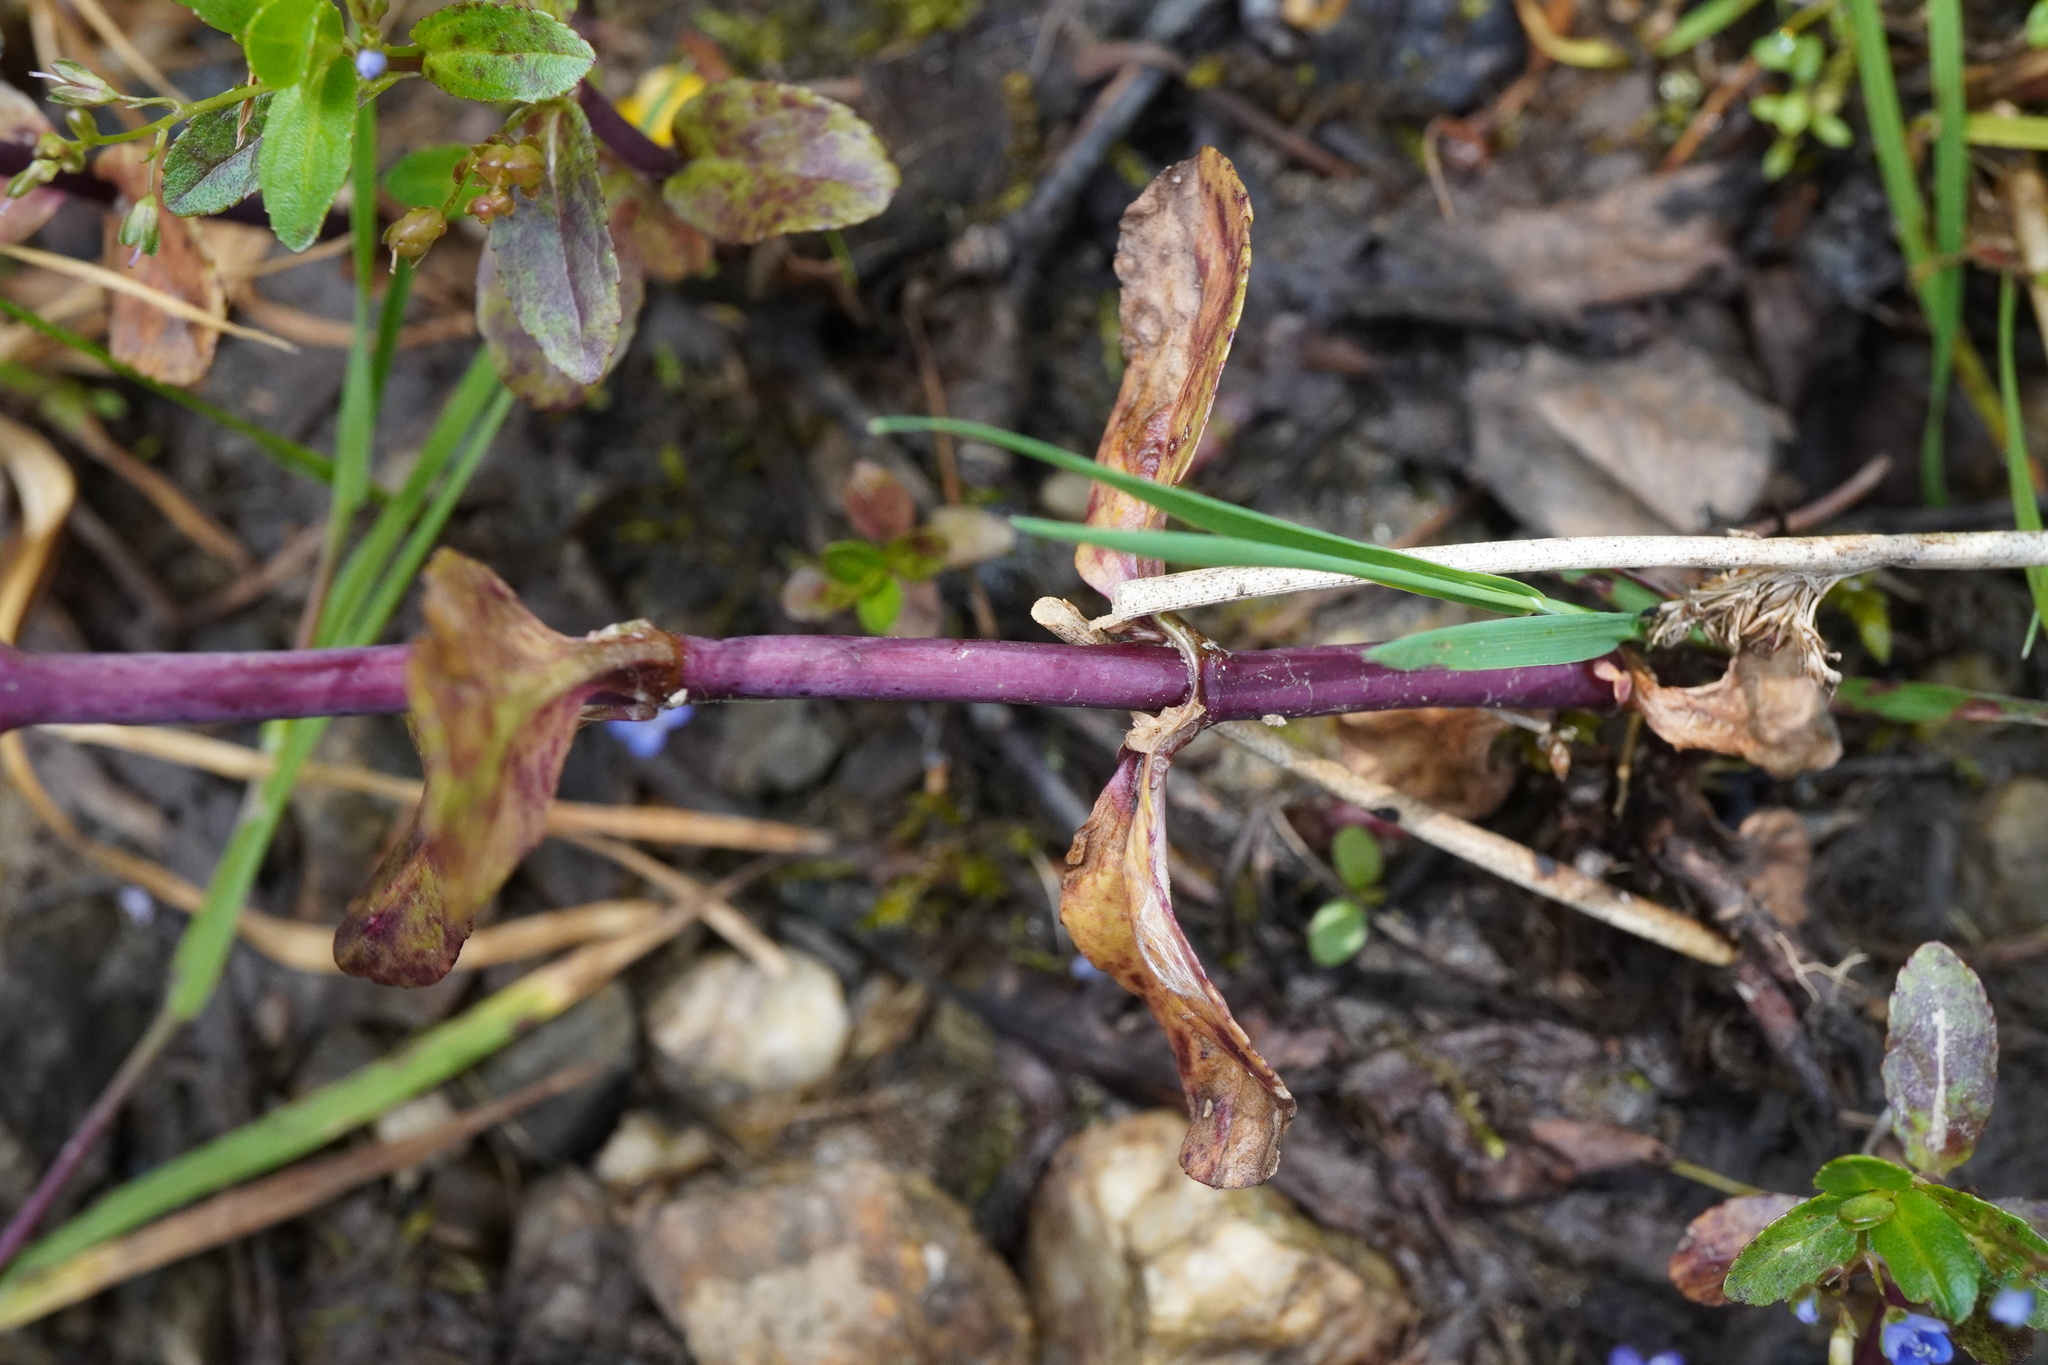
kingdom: Plantae
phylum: Tracheophyta
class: Magnoliopsida
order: Lamiales
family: Plantaginaceae
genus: Veronica
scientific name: Veronica beccabunga
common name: Brooklime
